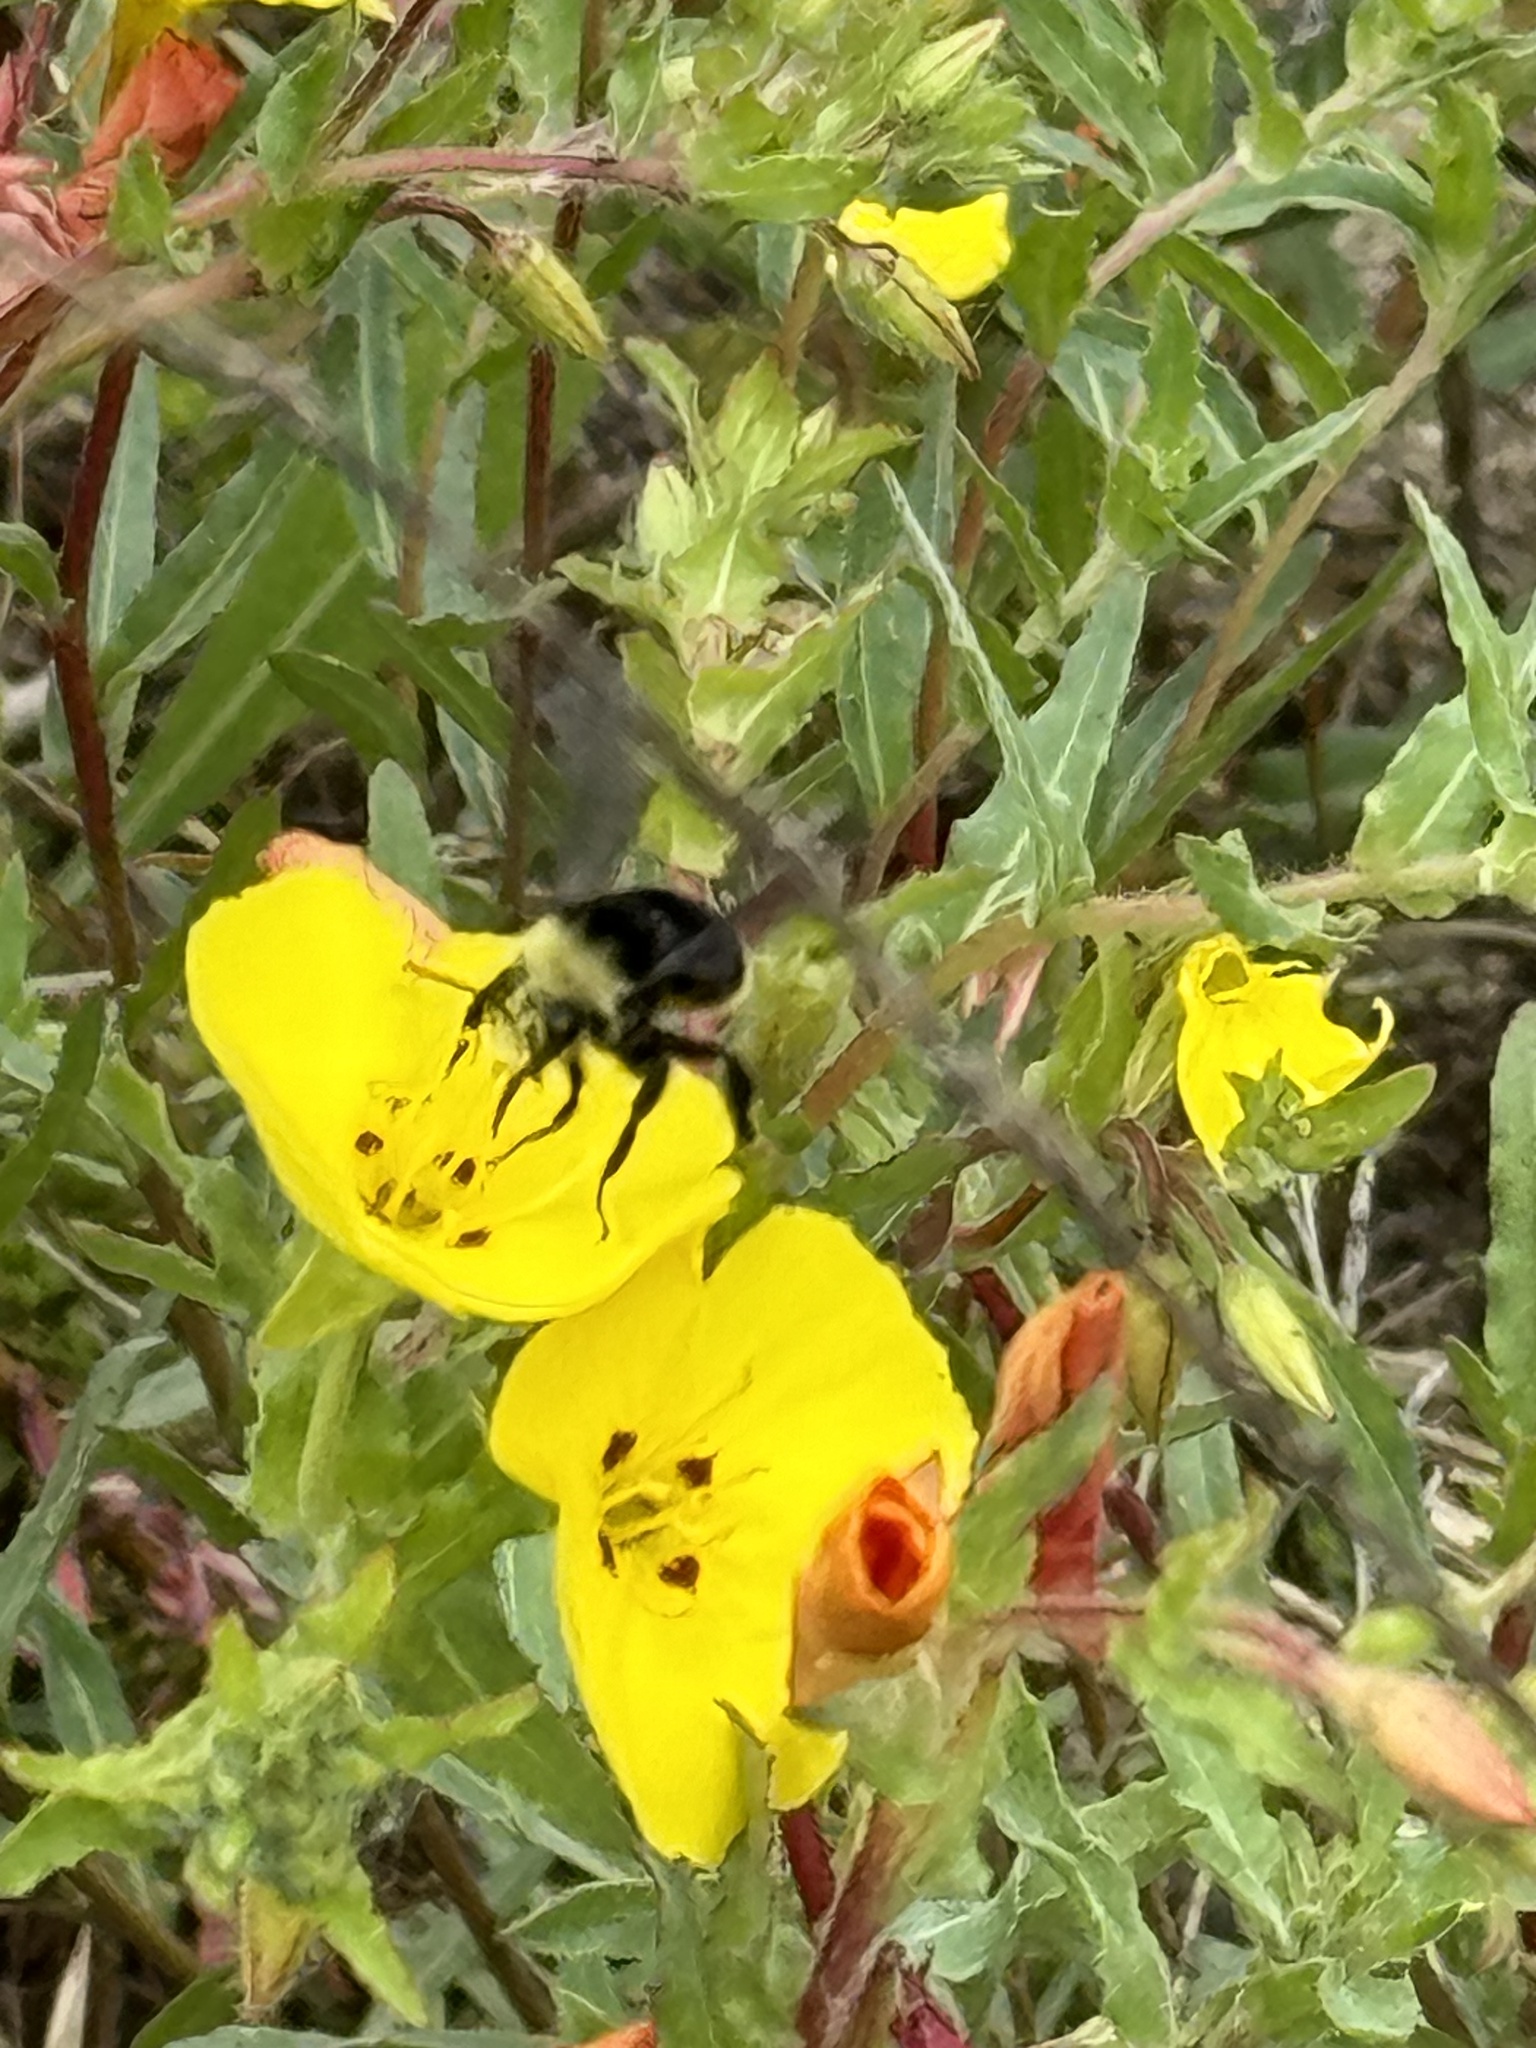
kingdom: Animalia
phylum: Arthropoda
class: Insecta
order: Hymenoptera
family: Apidae
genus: Bombus
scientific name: Bombus vosnesenskii
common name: Vosnesensky bumble bee
